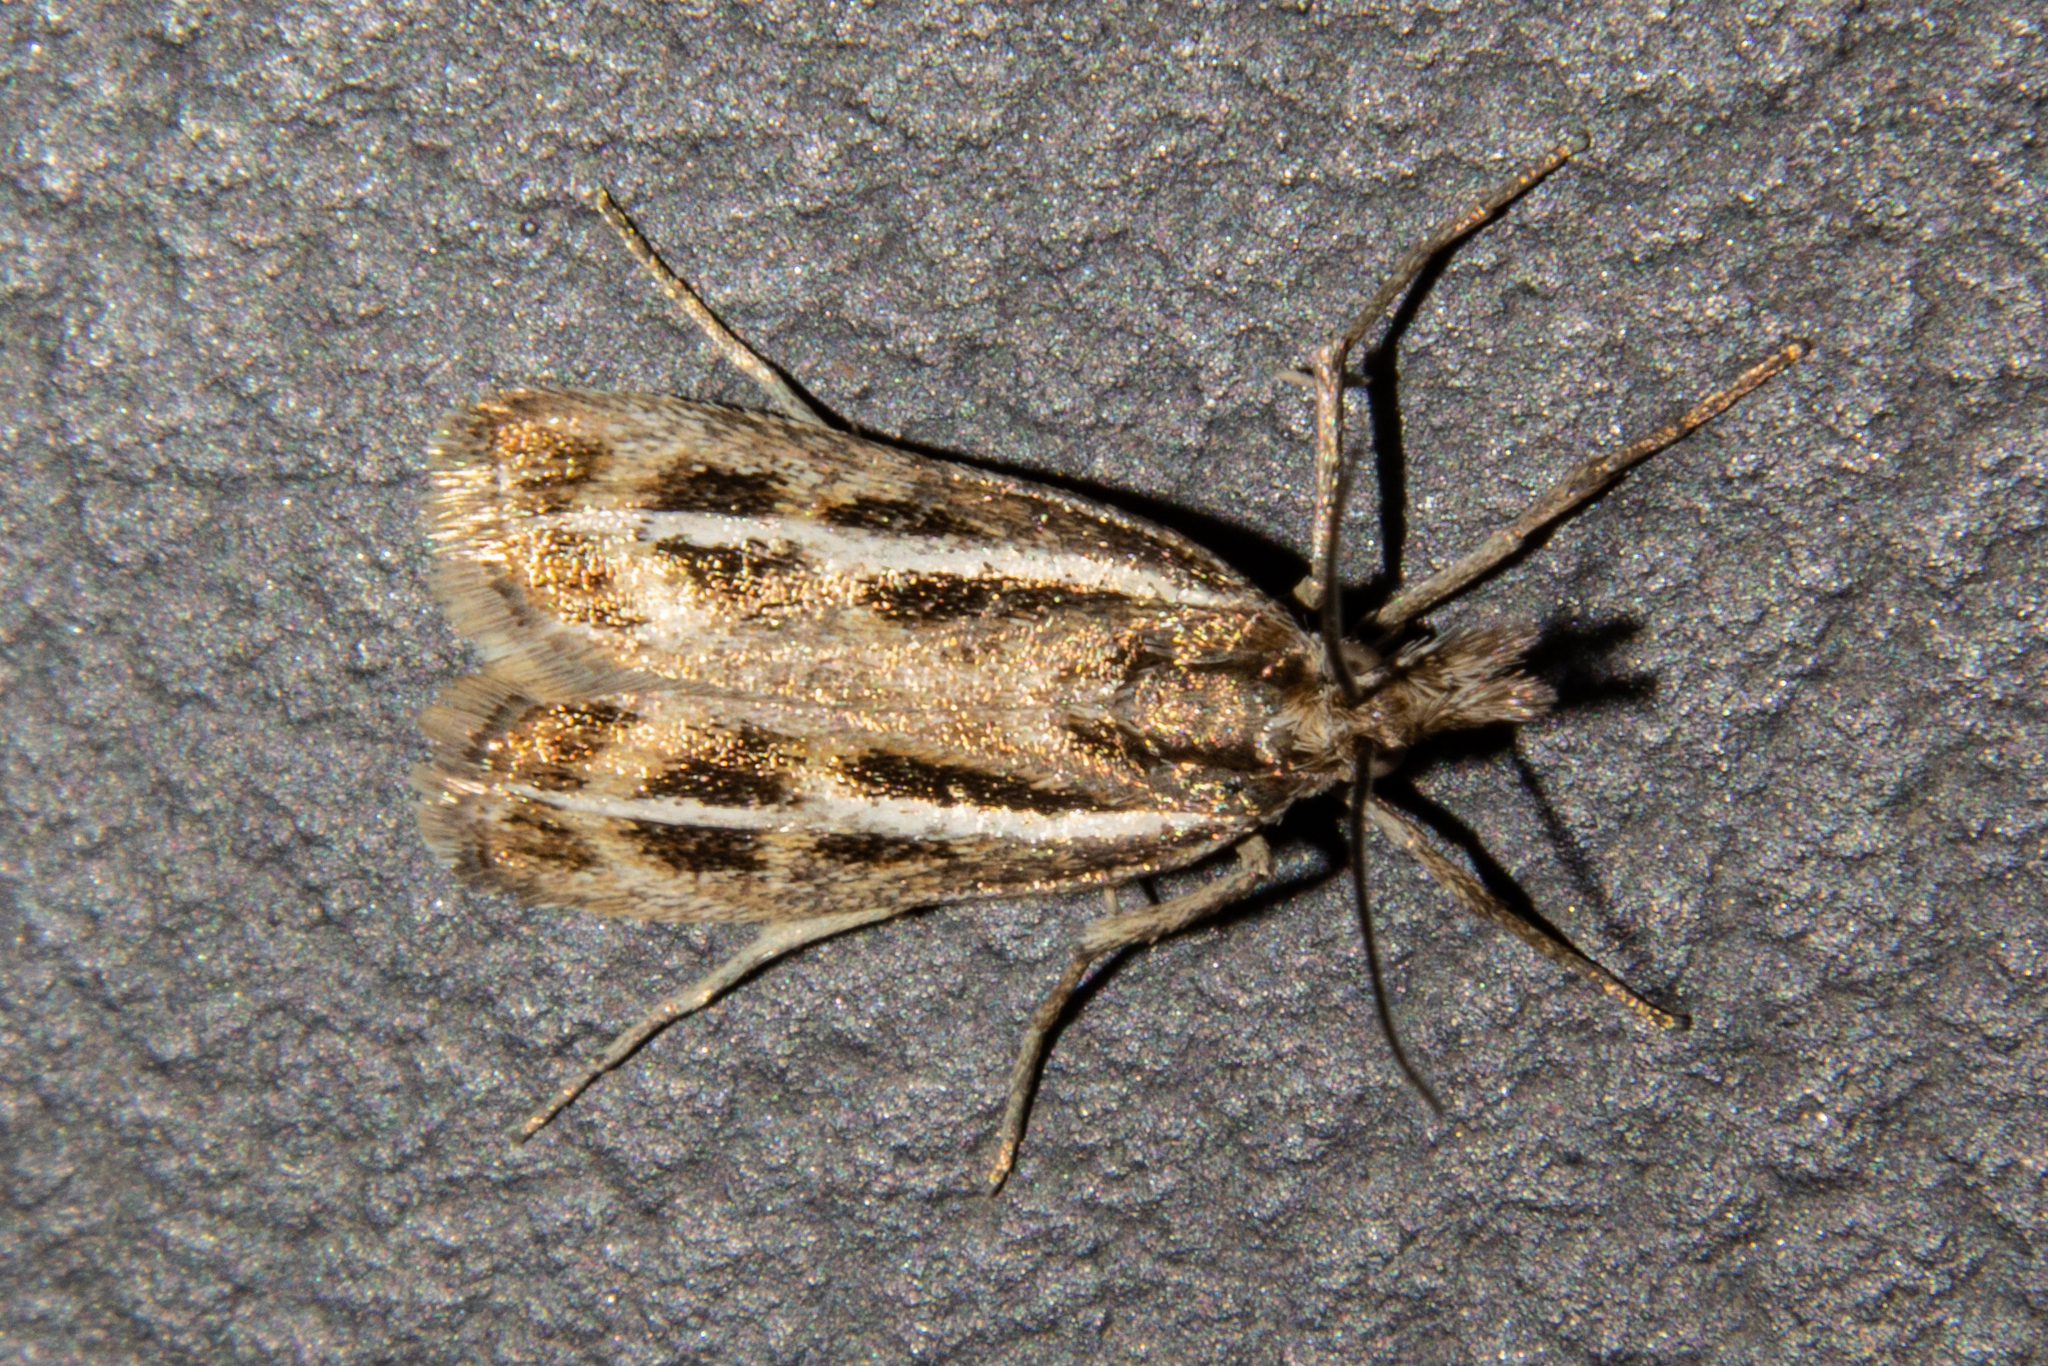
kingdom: Animalia
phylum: Arthropoda
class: Insecta
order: Lepidoptera
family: Crambidae
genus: Orocrambus
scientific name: Orocrambus corruptus
